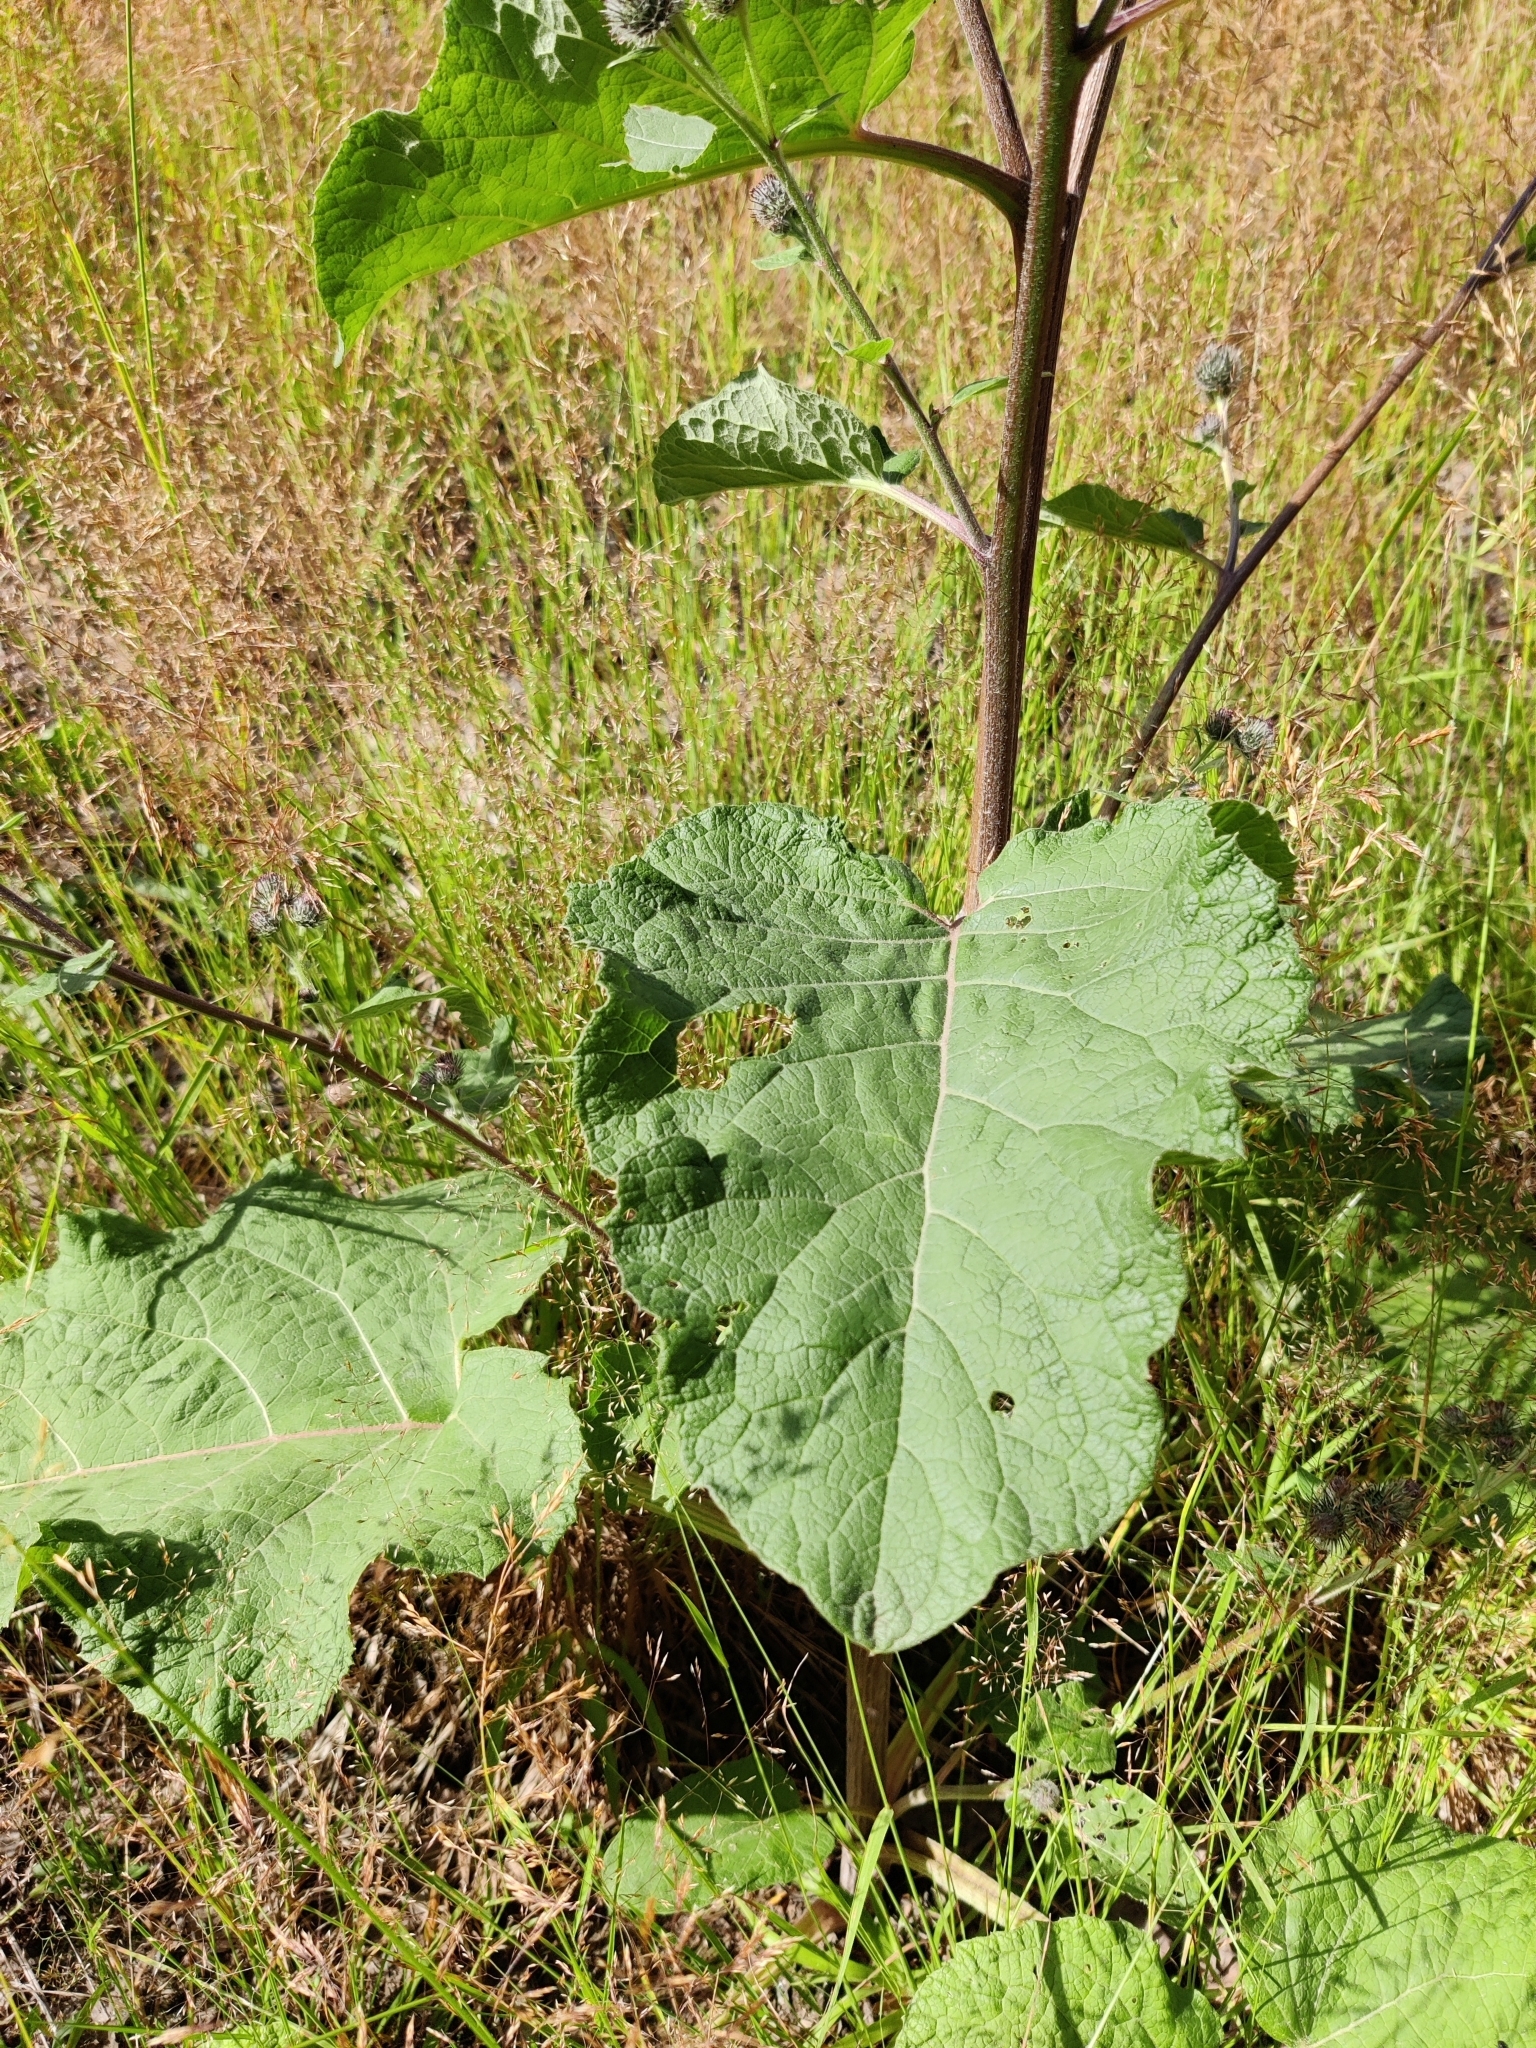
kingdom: Plantae
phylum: Tracheophyta
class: Magnoliopsida
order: Asterales
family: Asteraceae
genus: Arctium
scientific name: Arctium tomentosum
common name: Woolly burdock
